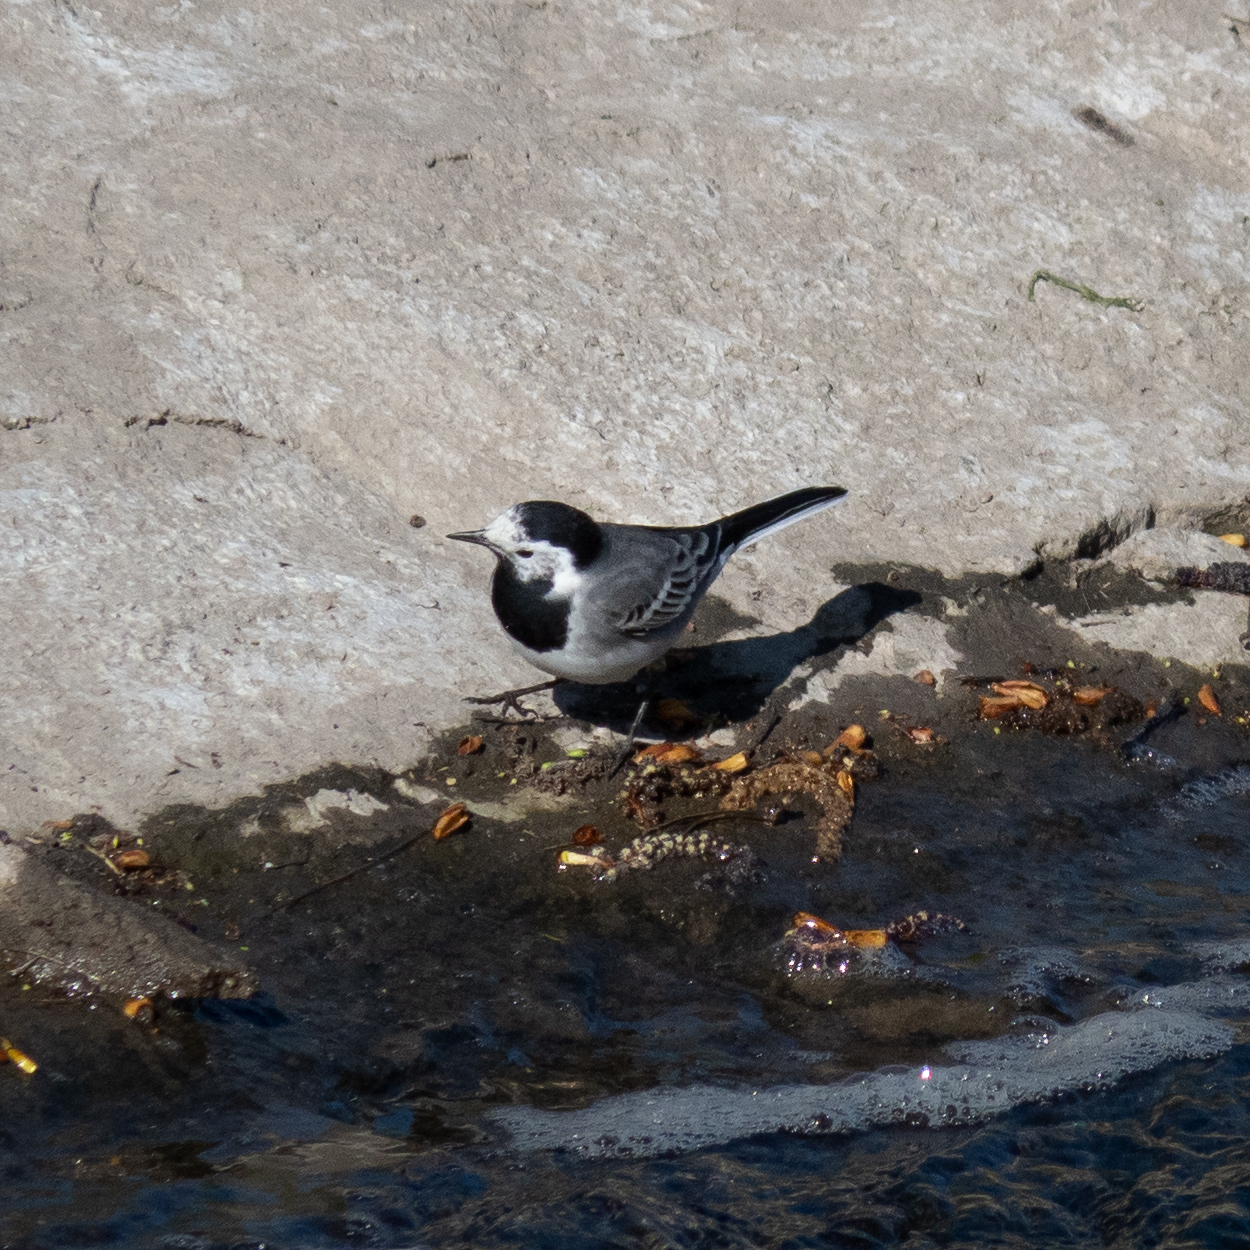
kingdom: Animalia
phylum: Chordata
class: Aves
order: Passeriformes
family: Motacillidae
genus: Motacilla
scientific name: Motacilla alba
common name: White wagtail
